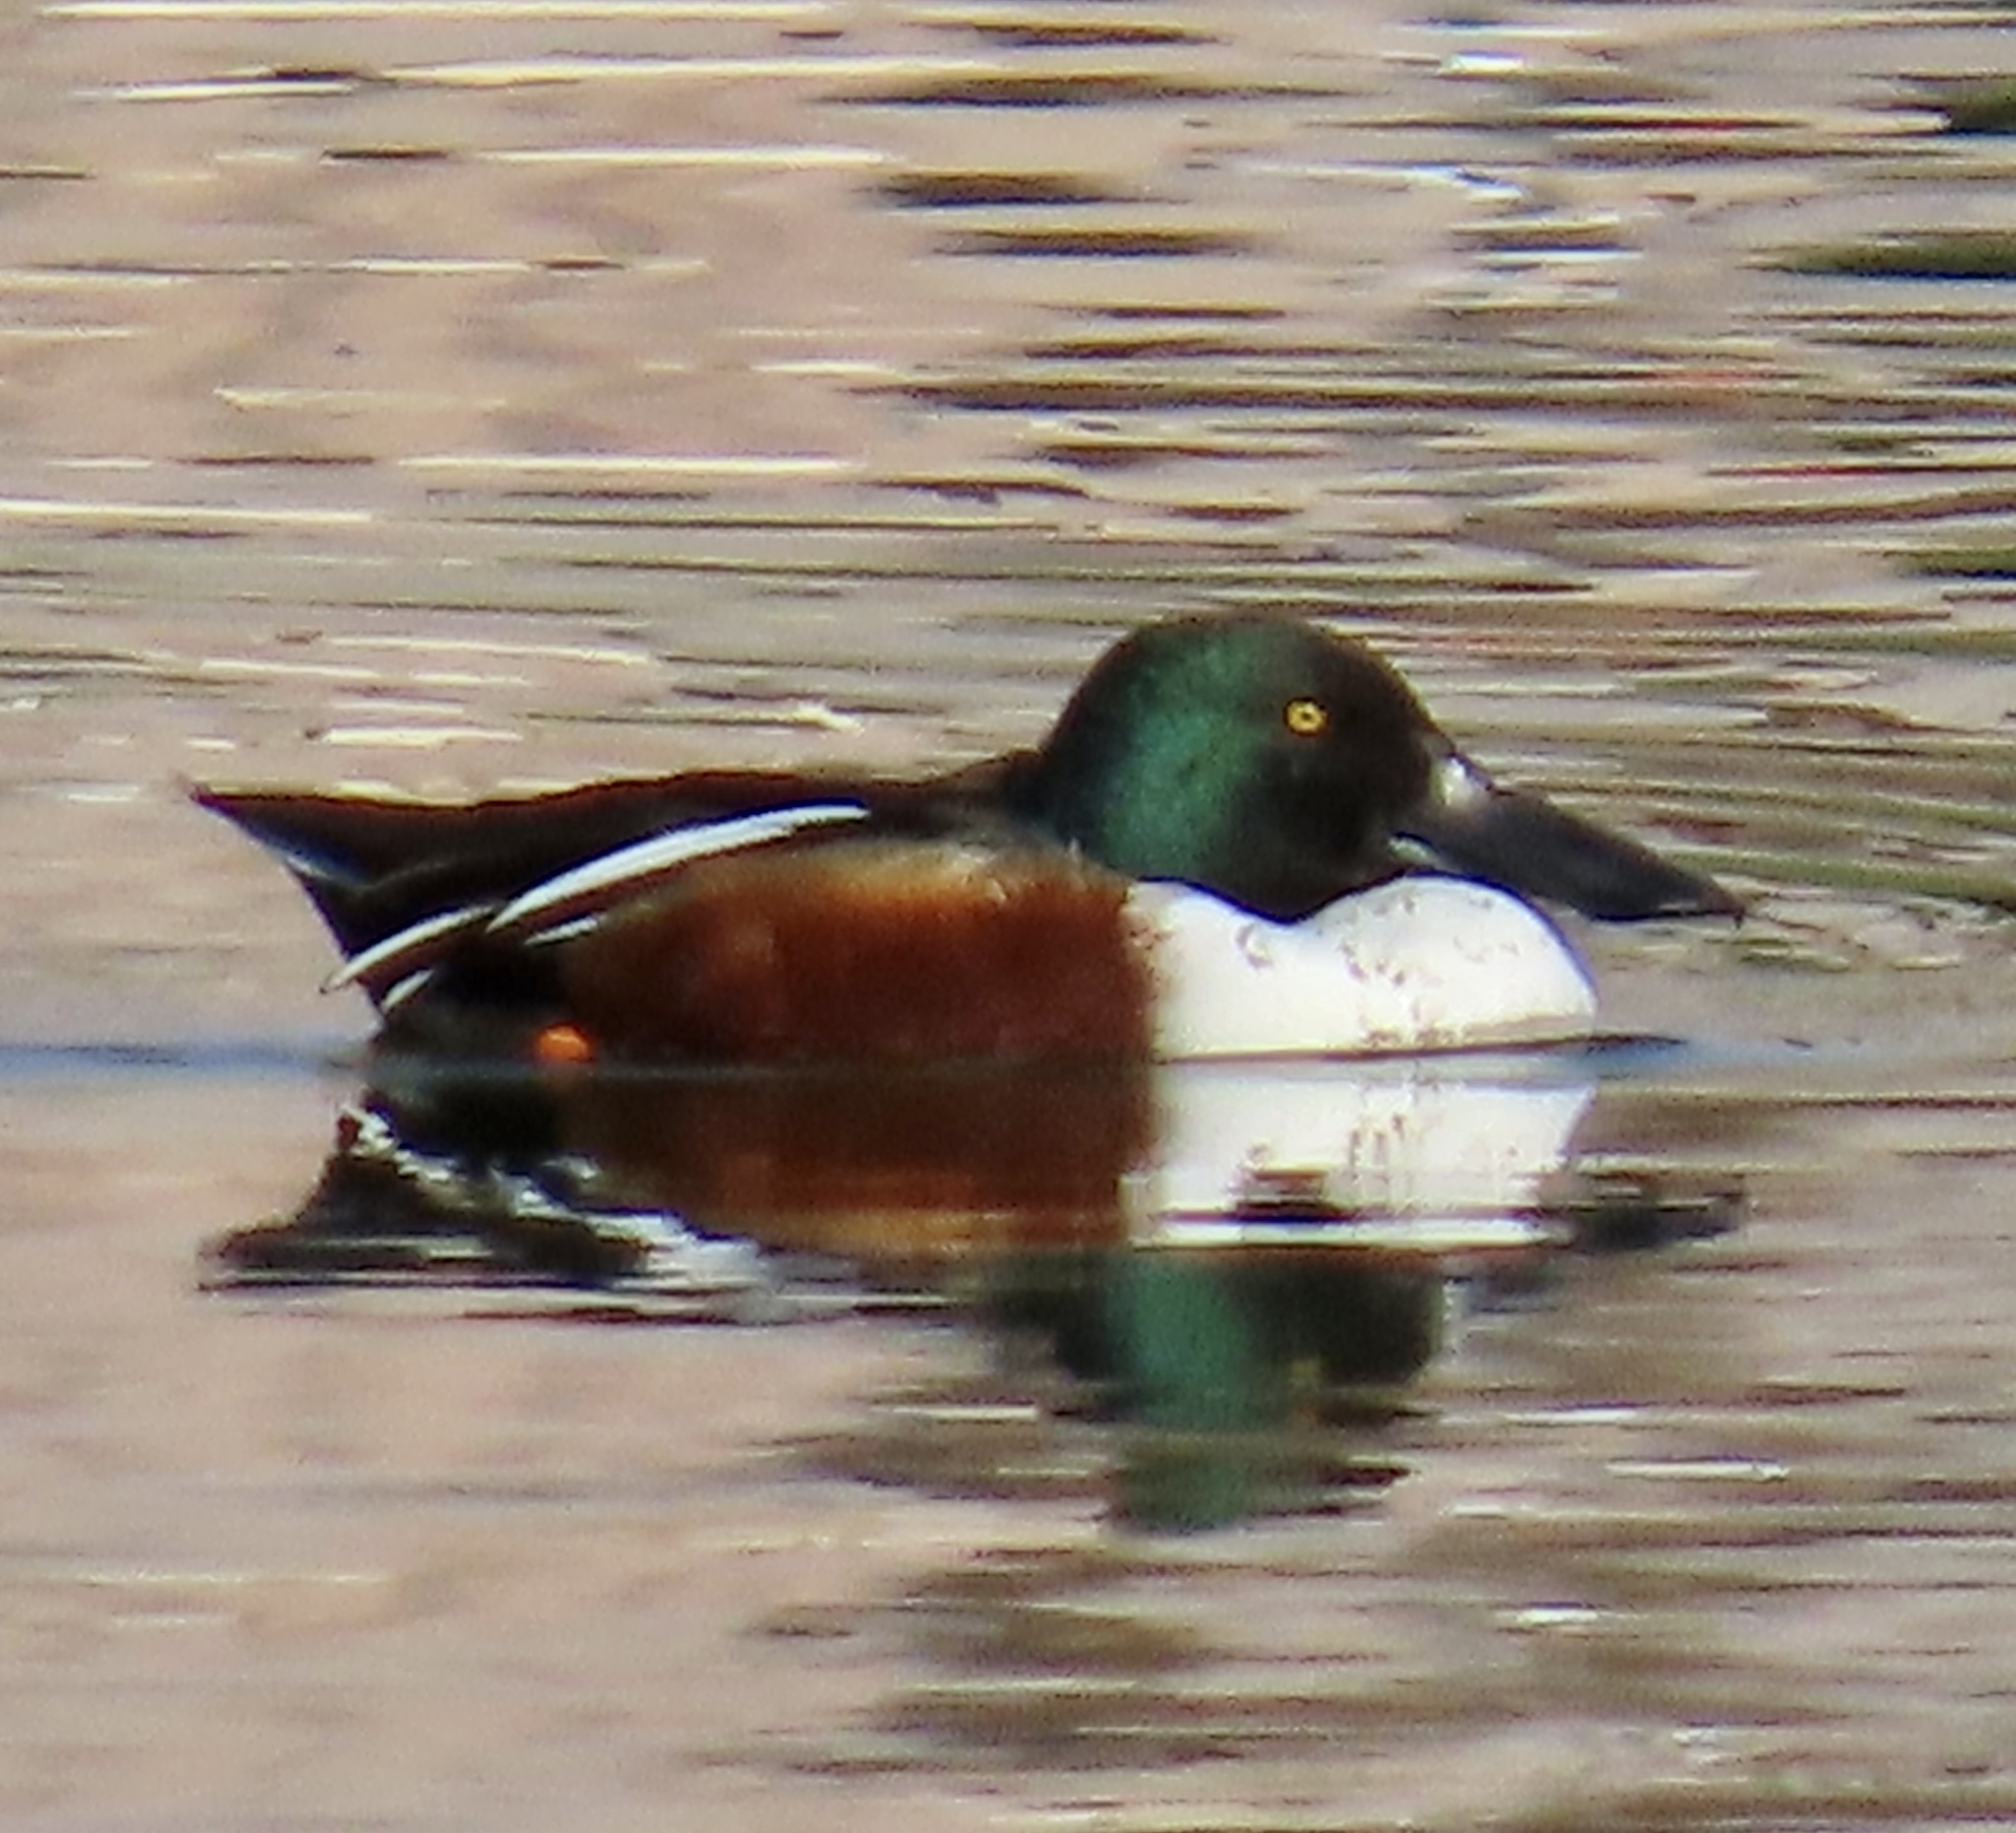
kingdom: Animalia
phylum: Chordata
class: Aves
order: Anseriformes
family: Anatidae
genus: Spatula
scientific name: Spatula clypeata
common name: Northern shoveler
